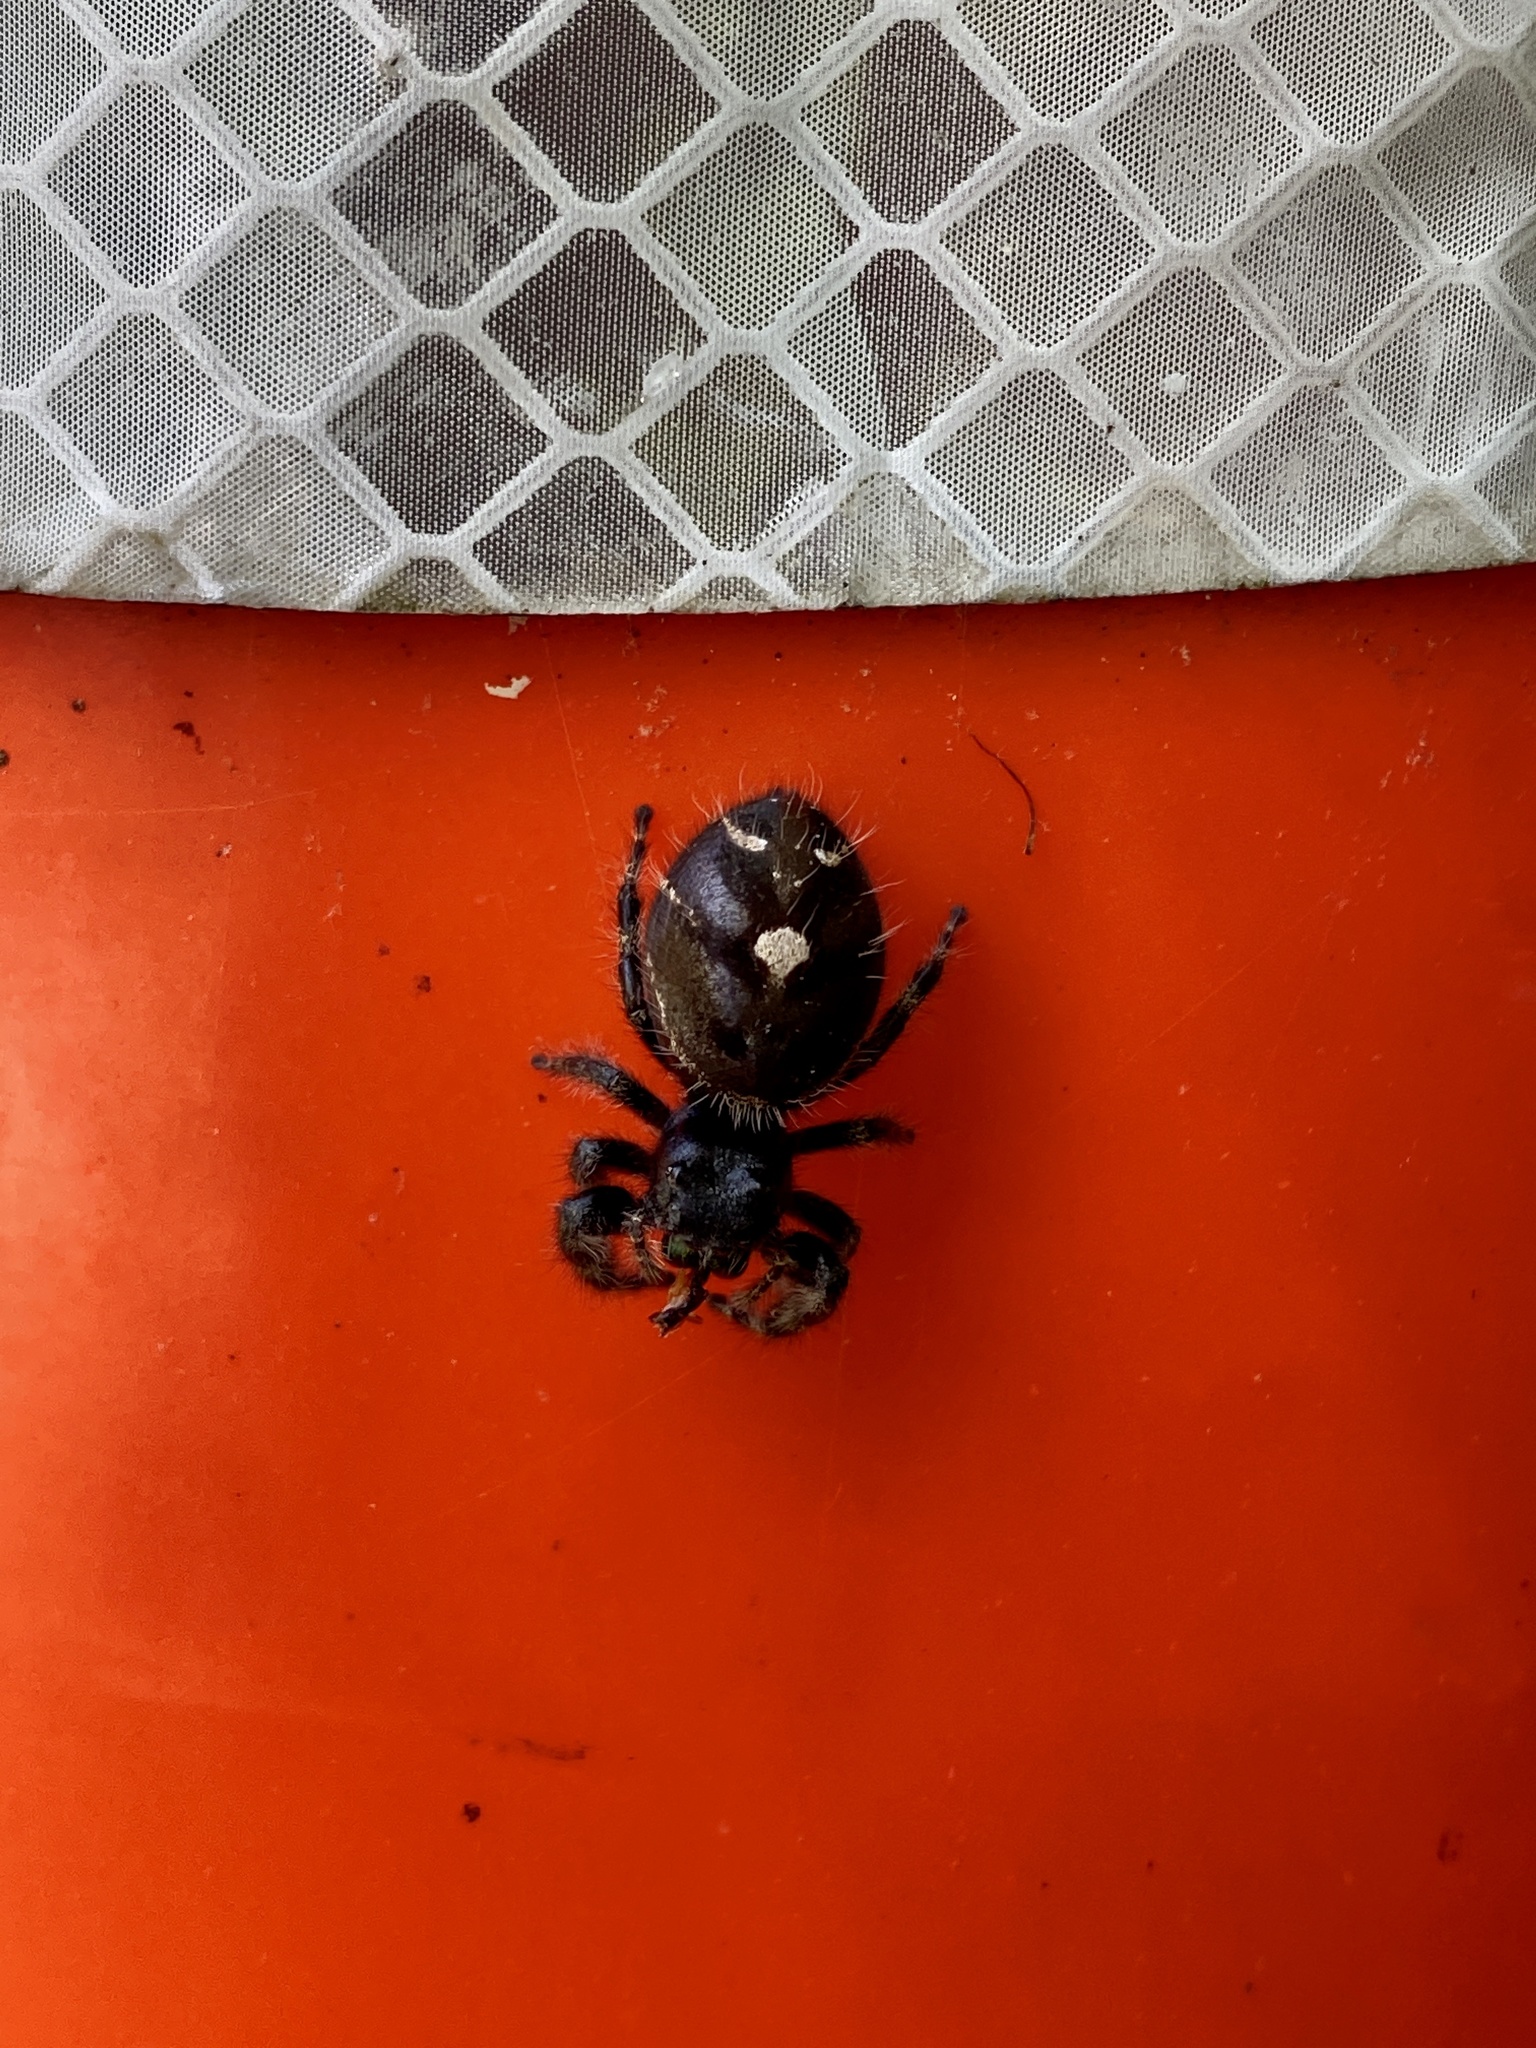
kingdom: Animalia
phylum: Arthropoda
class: Arachnida
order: Araneae
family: Salticidae
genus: Phidippus
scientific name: Phidippus audax
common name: Bold jumper
